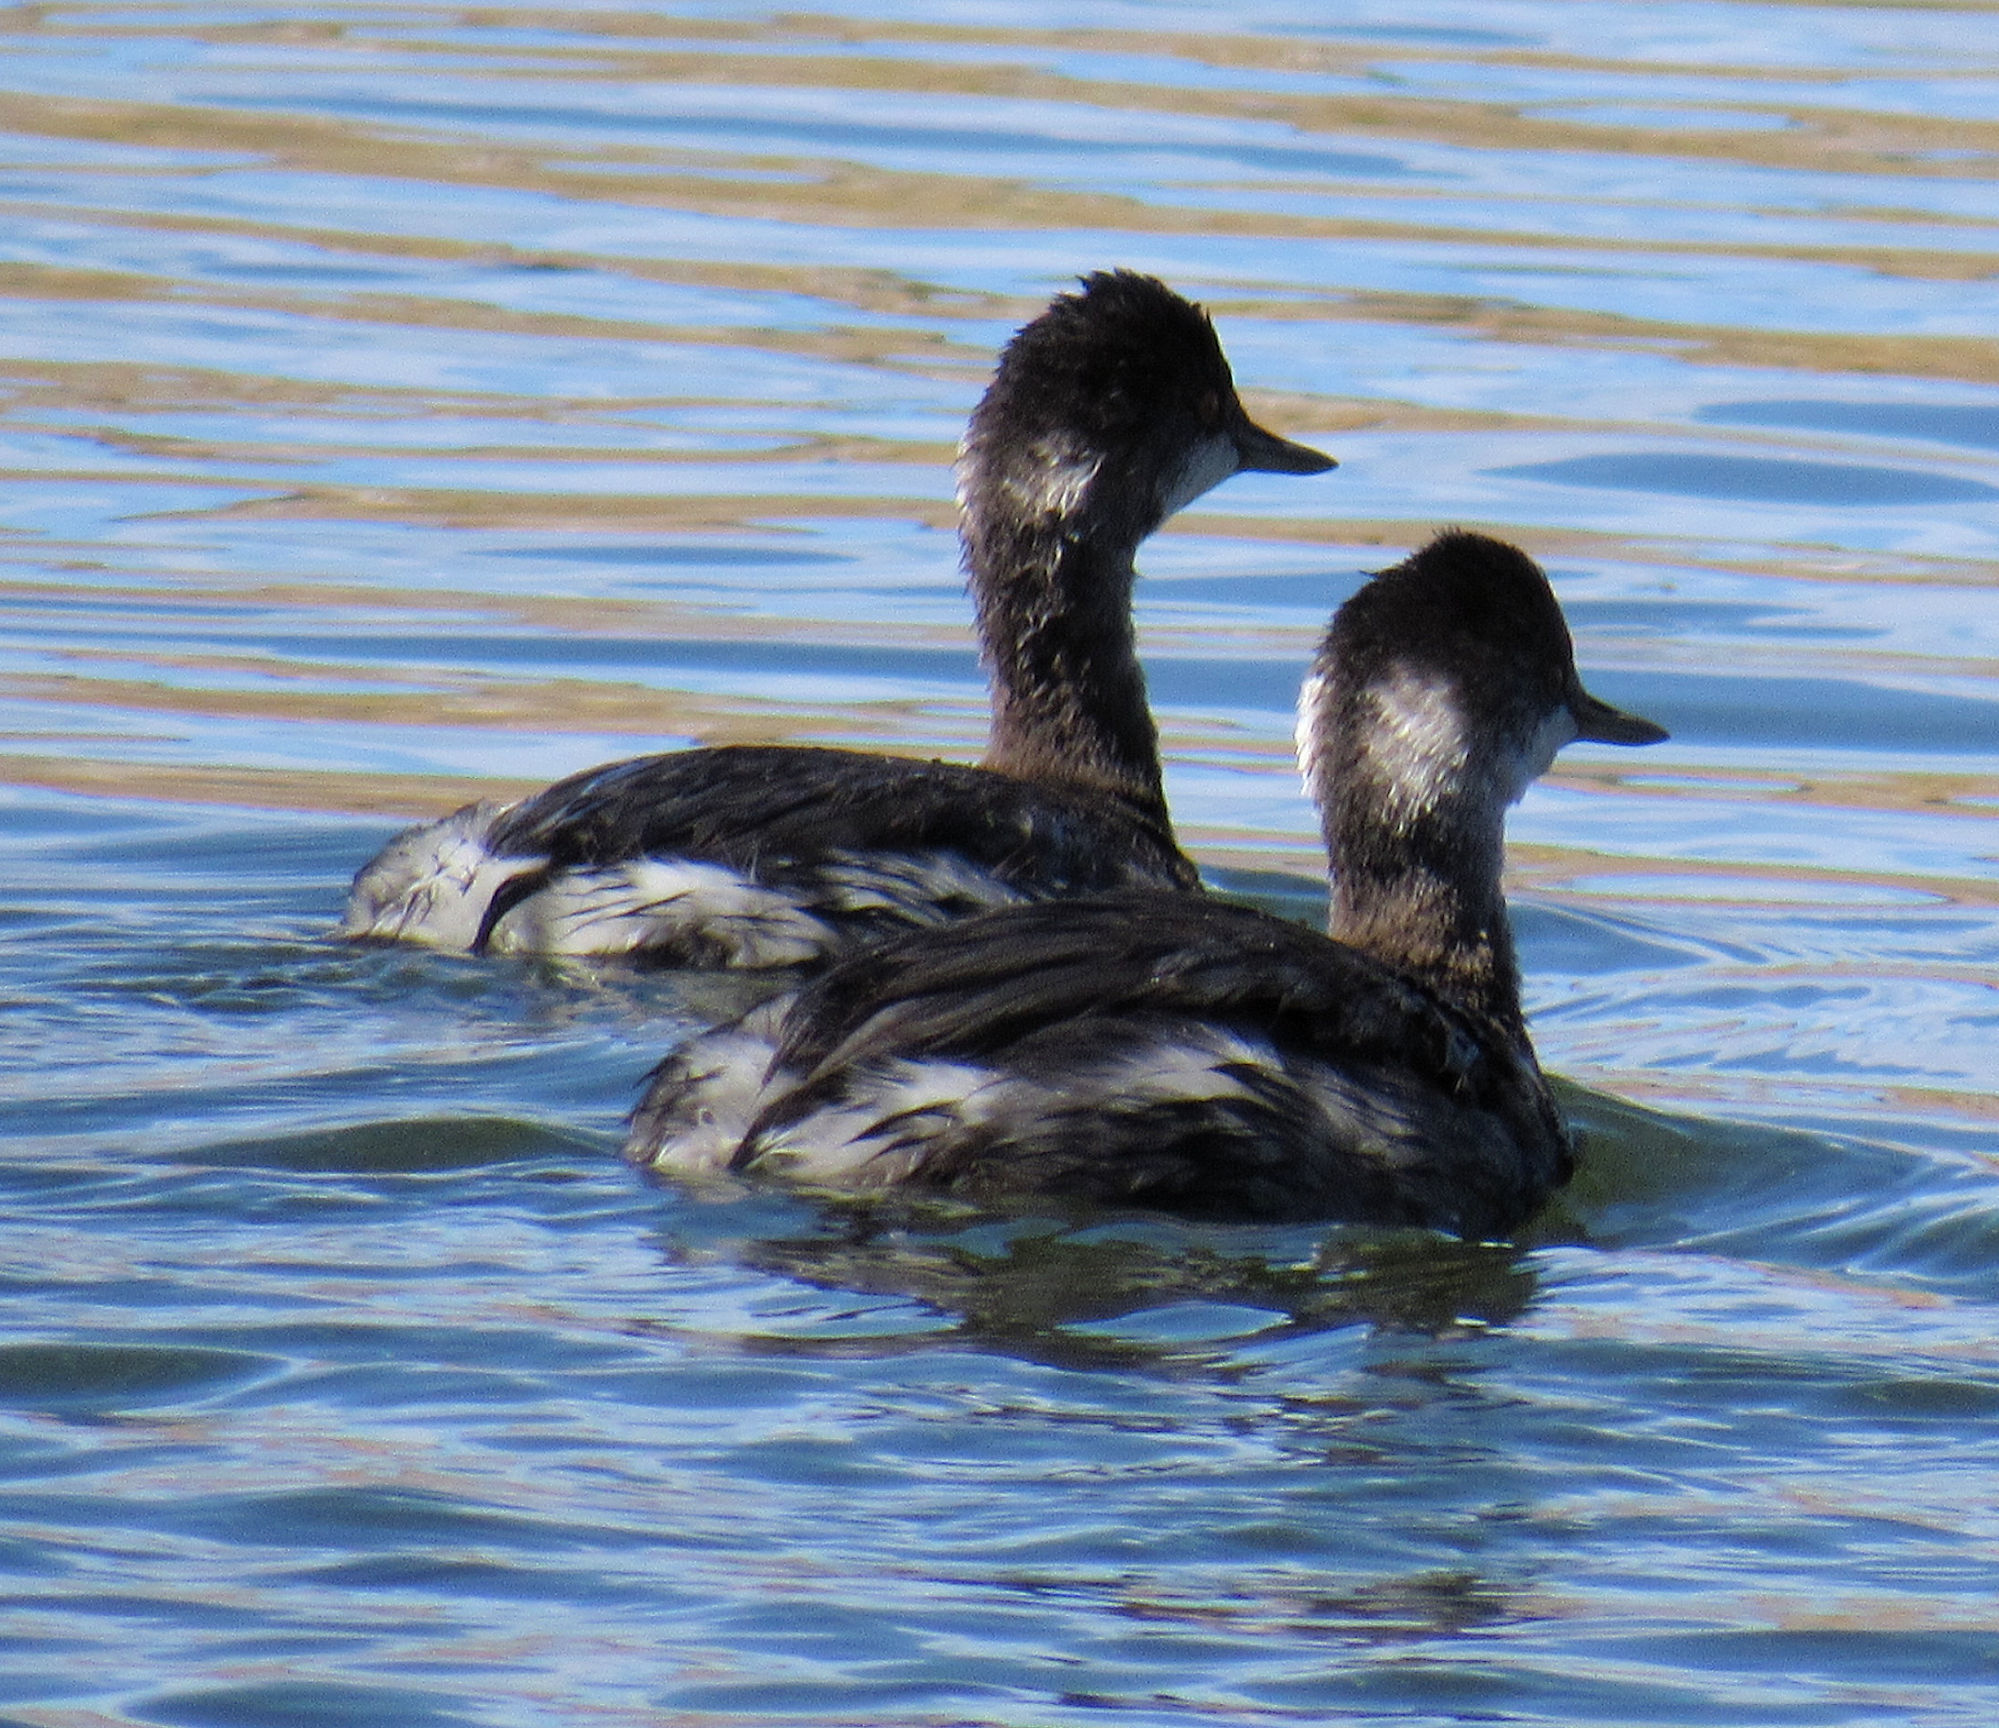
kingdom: Animalia
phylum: Chordata
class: Aves
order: Podicipediformes
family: Podicipedidae
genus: Podiceps
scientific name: Podiceps nigricollis
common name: Black-necked grebe
